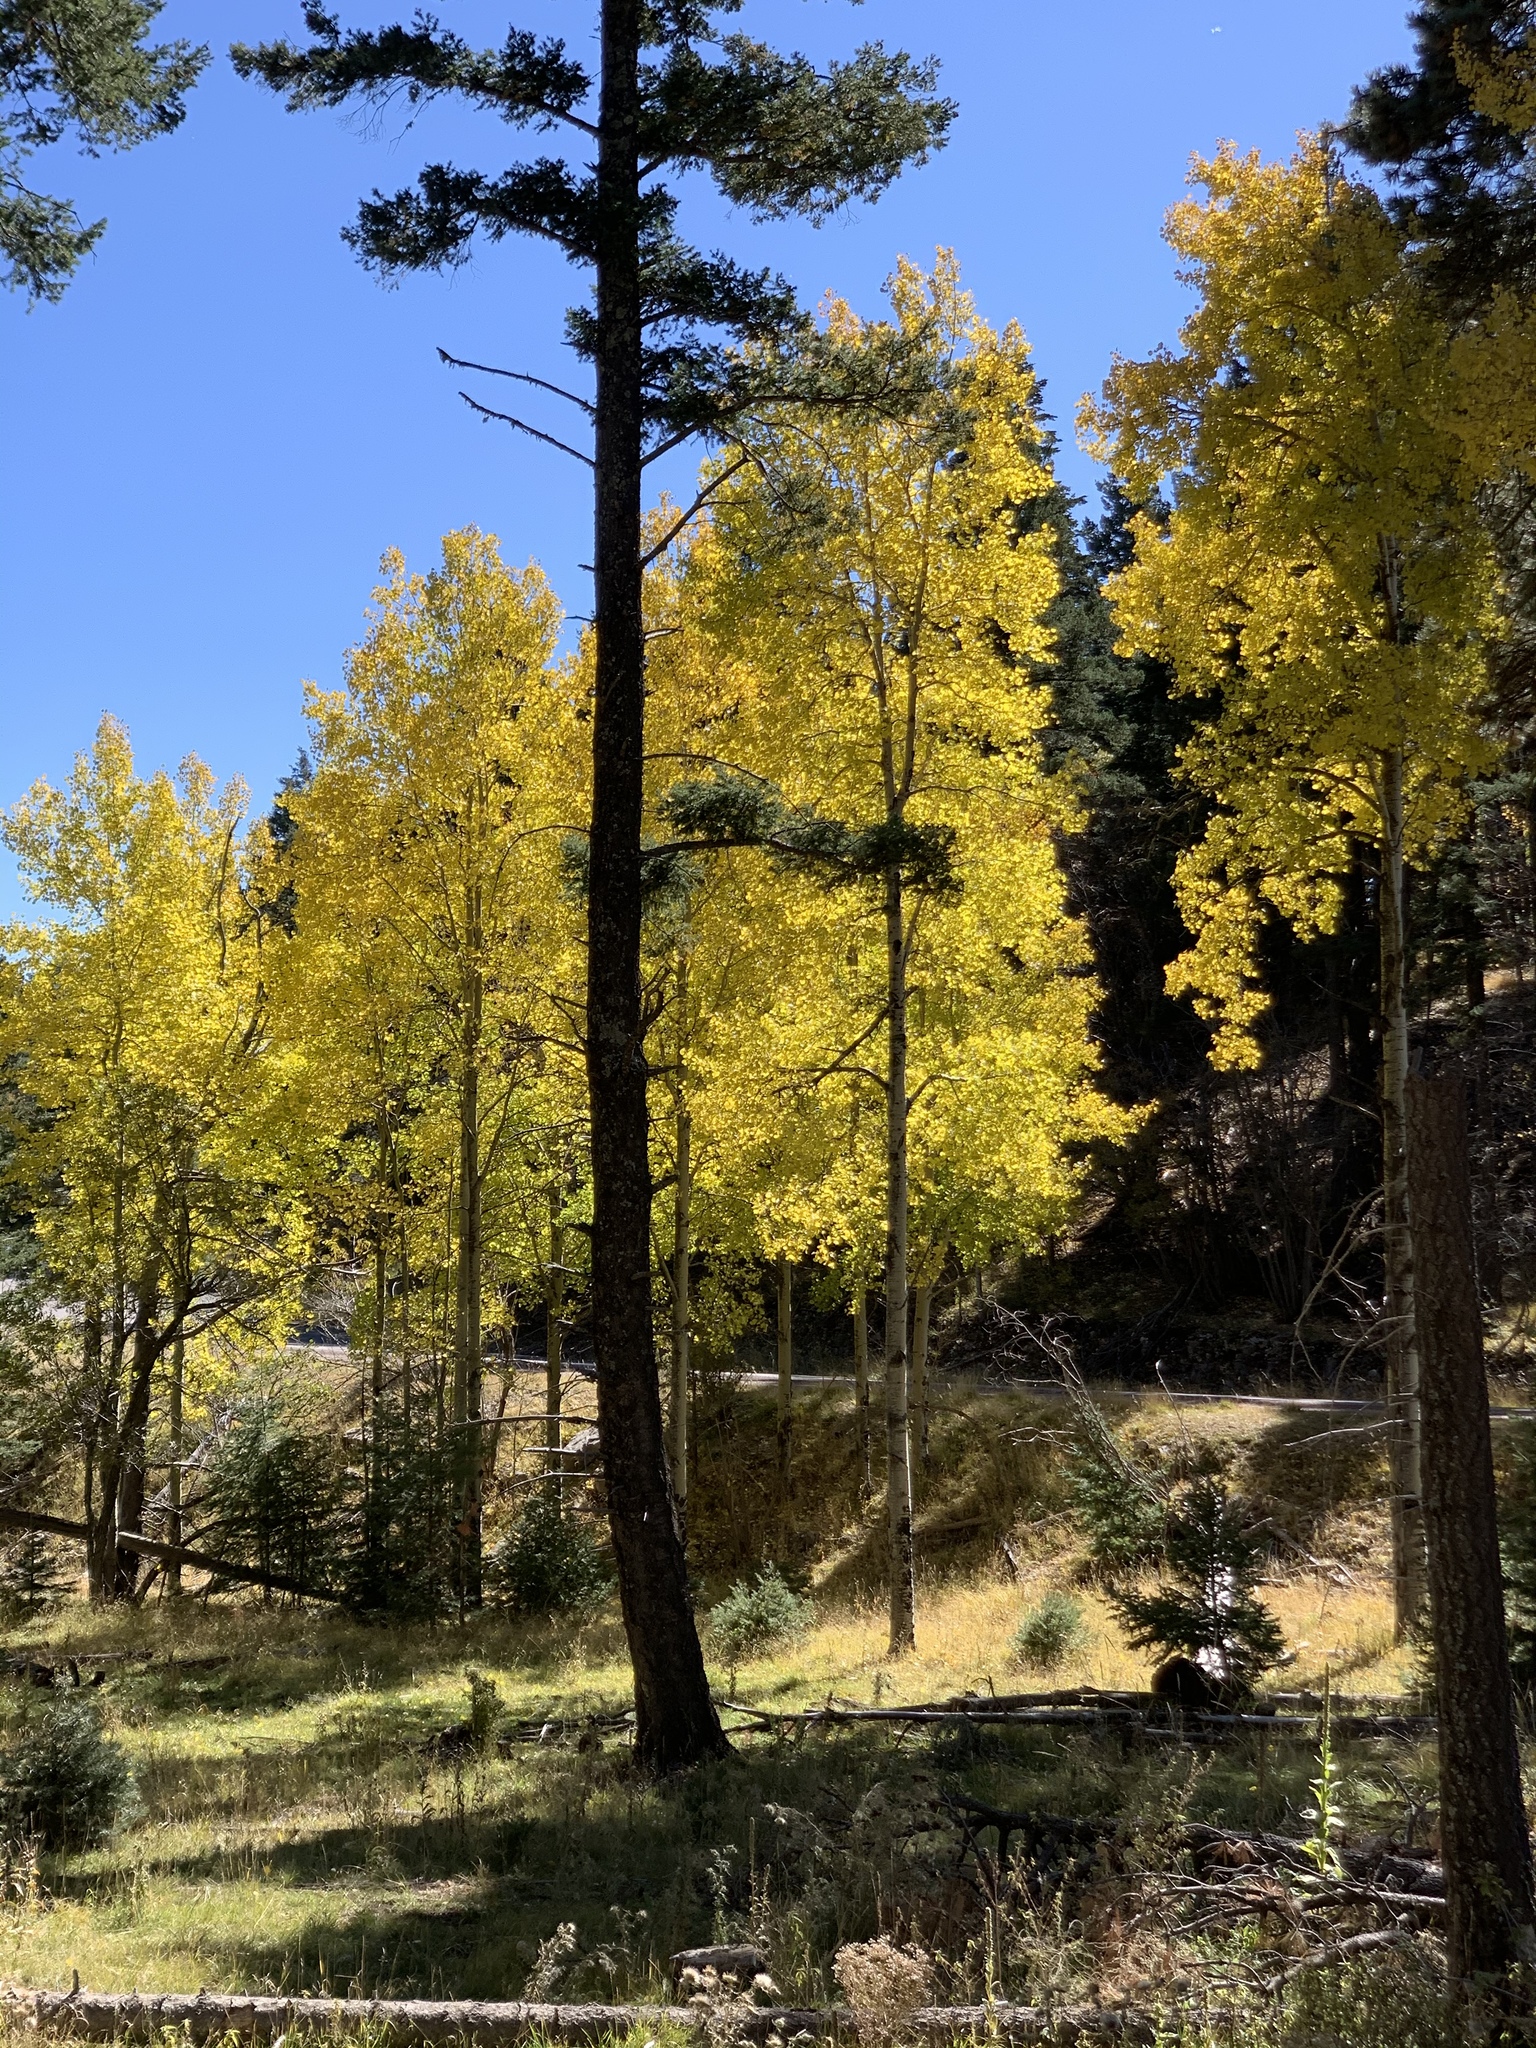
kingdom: Plantae
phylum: Tracheophyta
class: Magnoliopsida
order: Malpighiales
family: Salicaceae
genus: Populus
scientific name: Populus tremuloides
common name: Quaking aspen
